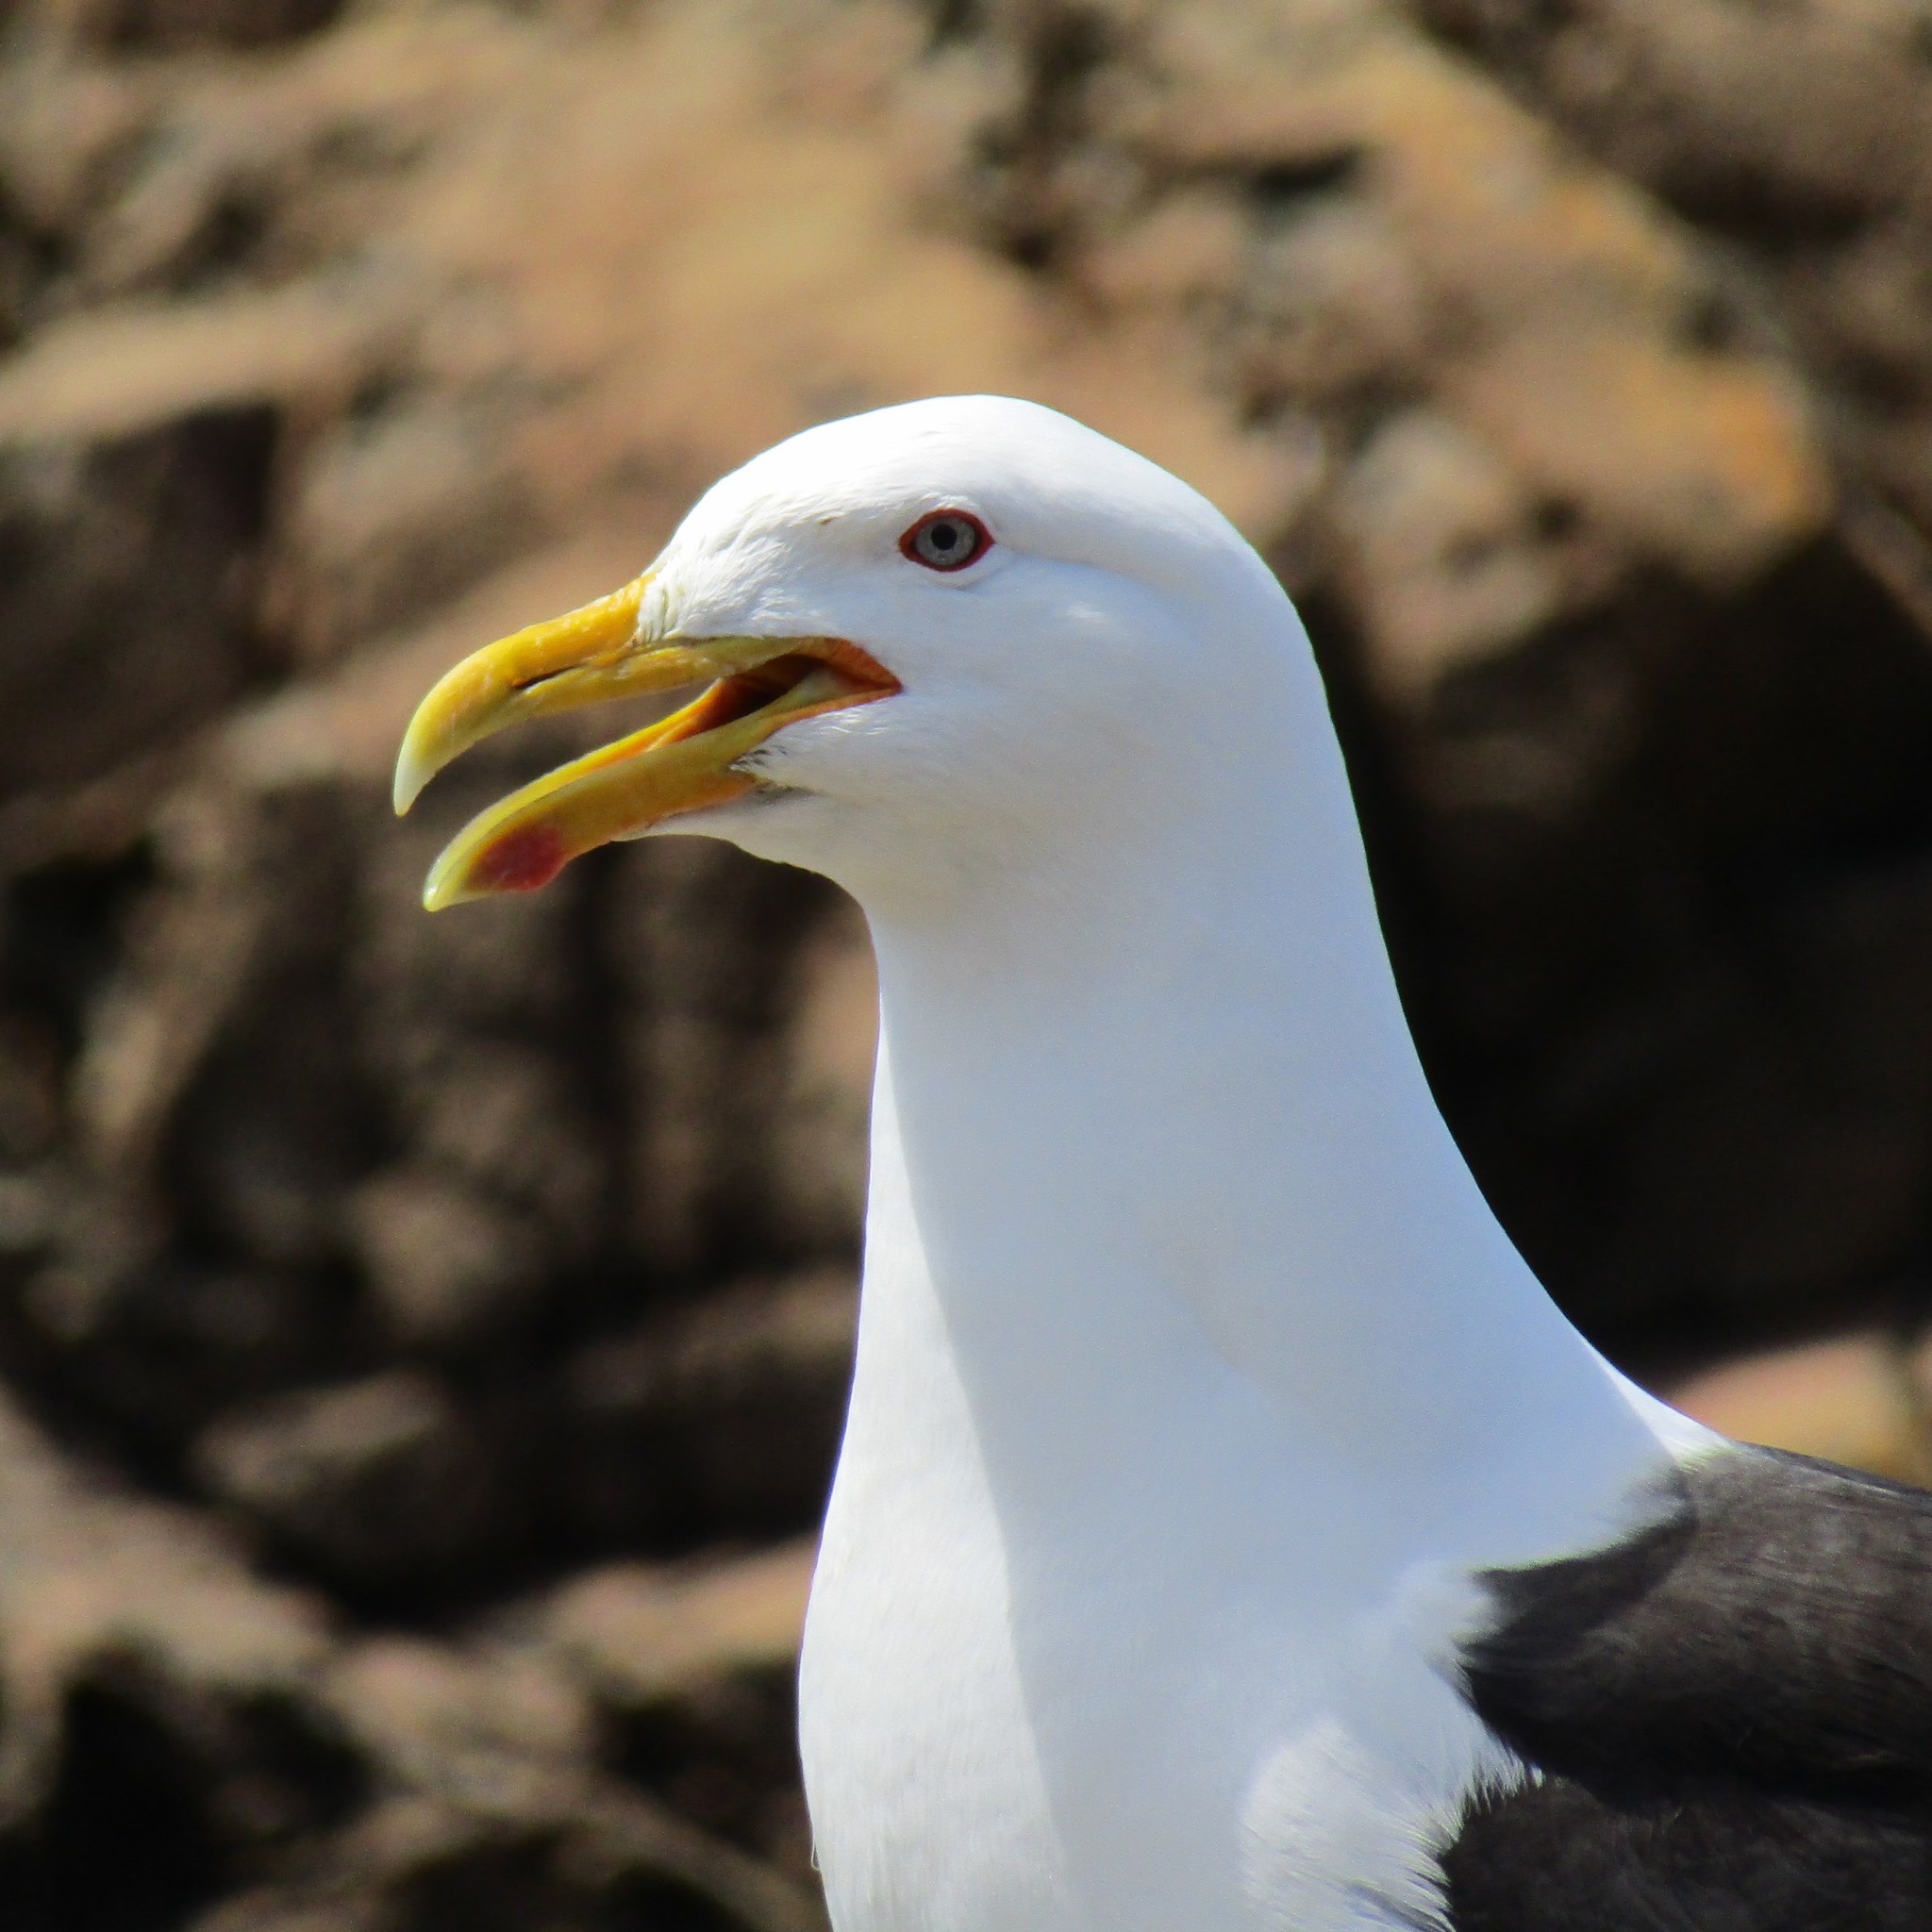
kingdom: Animalia
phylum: Chordata
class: Aves
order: Charadriiformes
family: Laridae
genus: Larus
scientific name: Larus dominicanus
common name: Kelp gull
